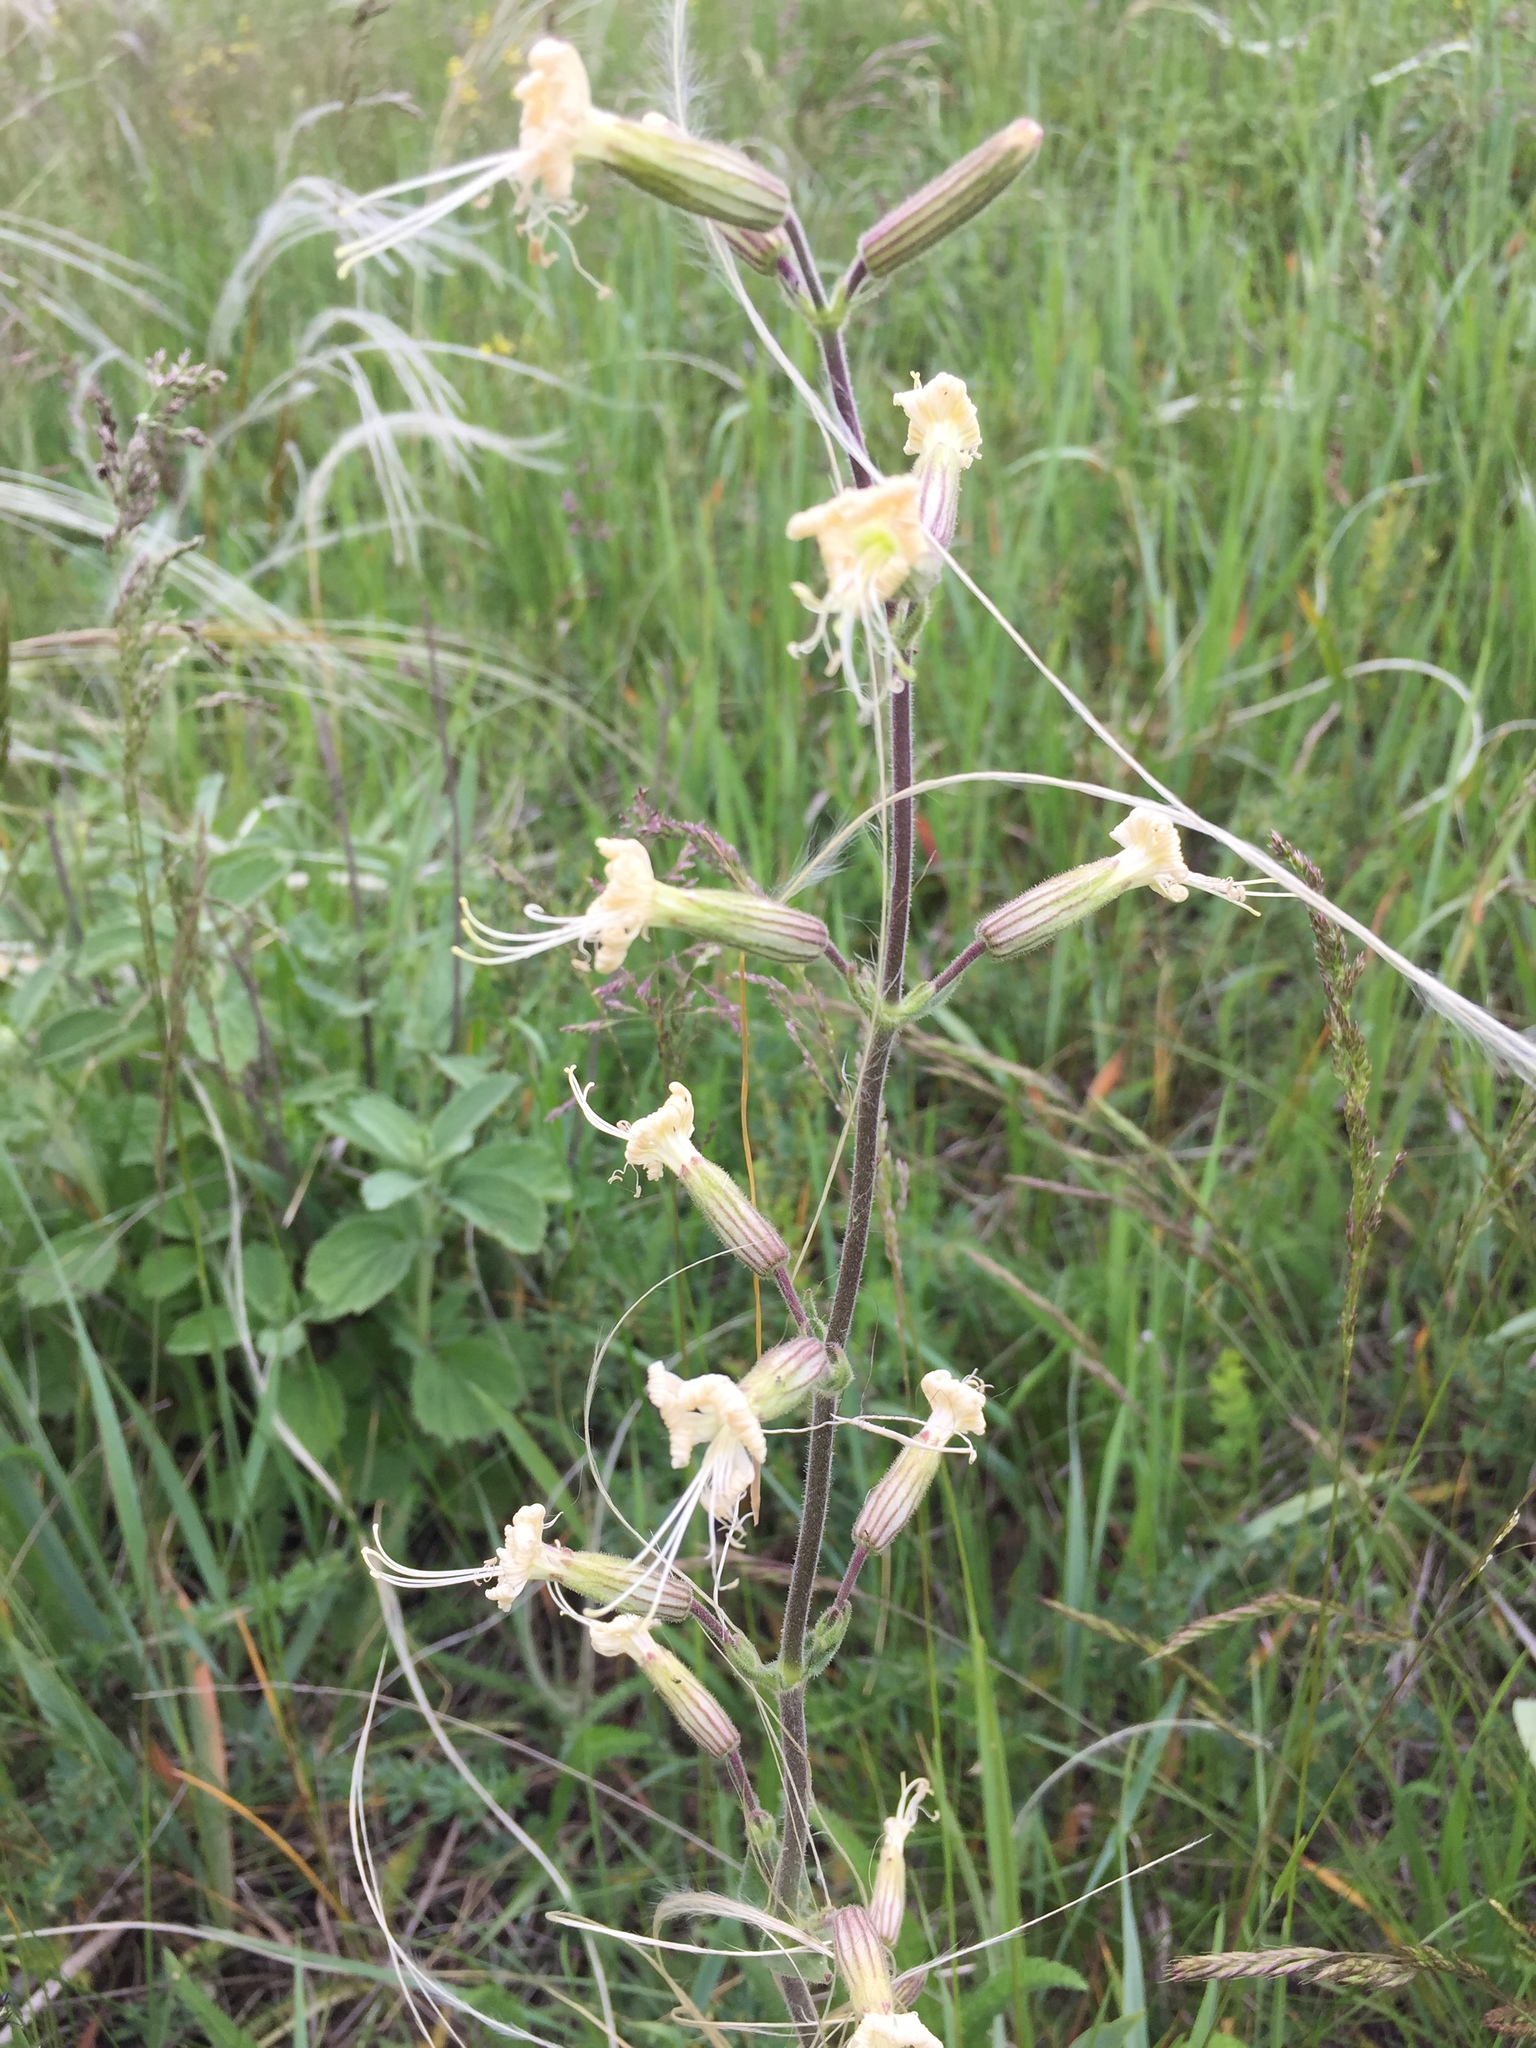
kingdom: Plantae
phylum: Tracheophyta
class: Magnoliopsida
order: Caryophyllales
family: Caryophyllaceae
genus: Silene
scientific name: Silene viscosa
